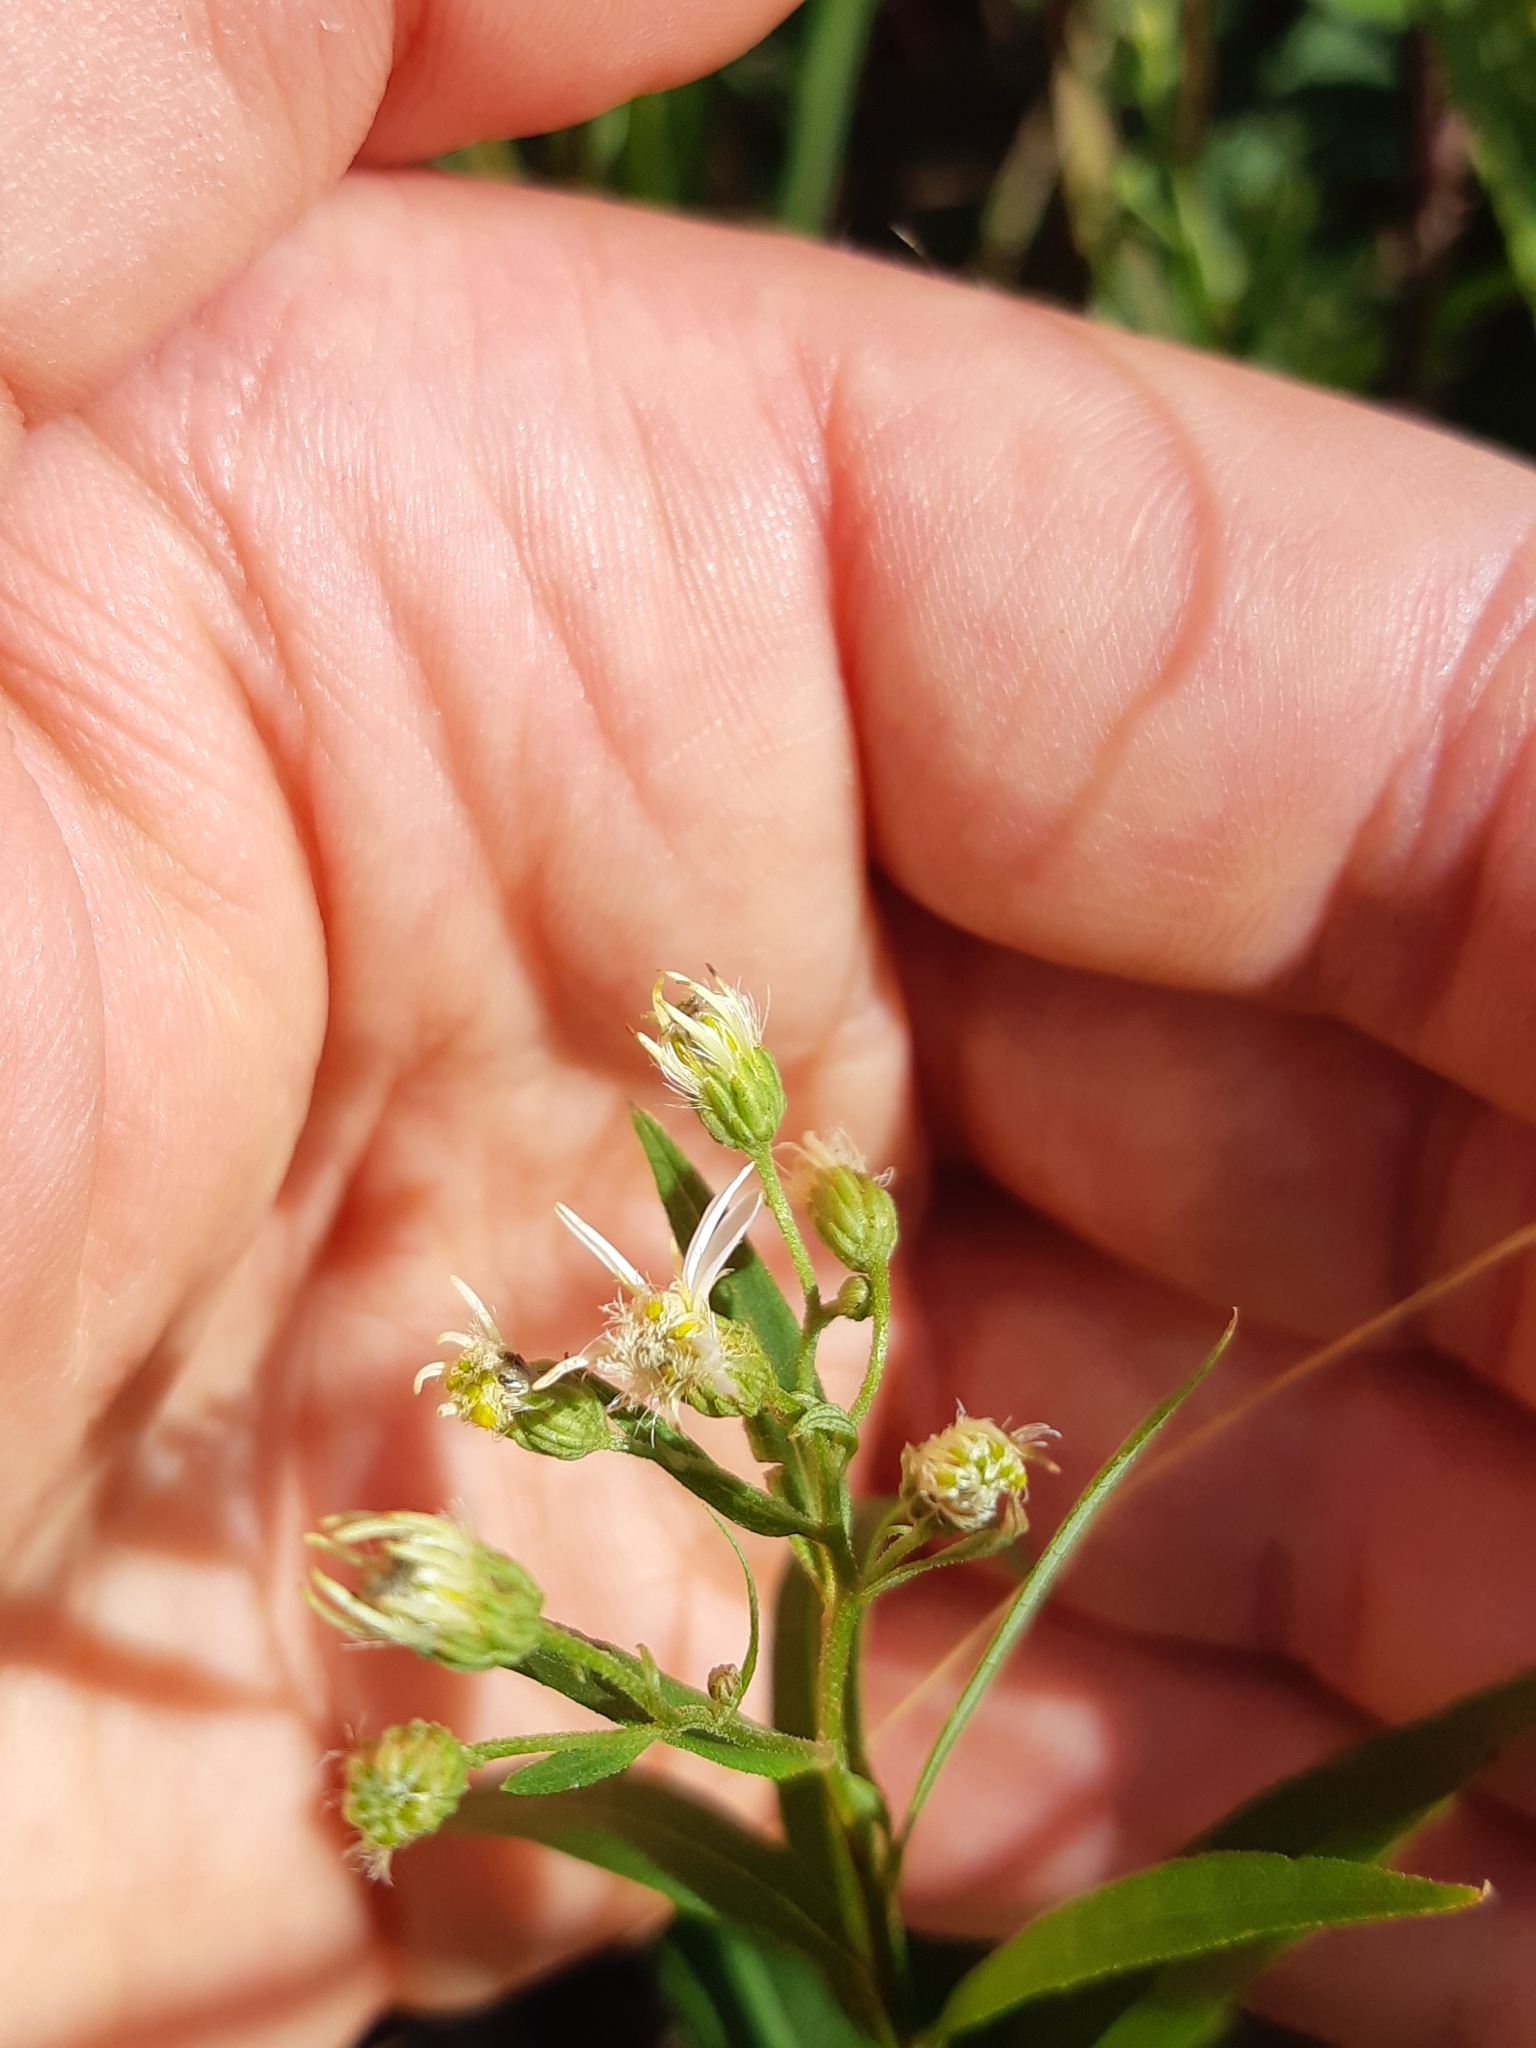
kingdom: Plantae
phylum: Tracheophyta
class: Magnoliopsida
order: Asterales
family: Asteraceae
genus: Doellingeria
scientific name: Doellingeria umbellata
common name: Flat-top white aster
